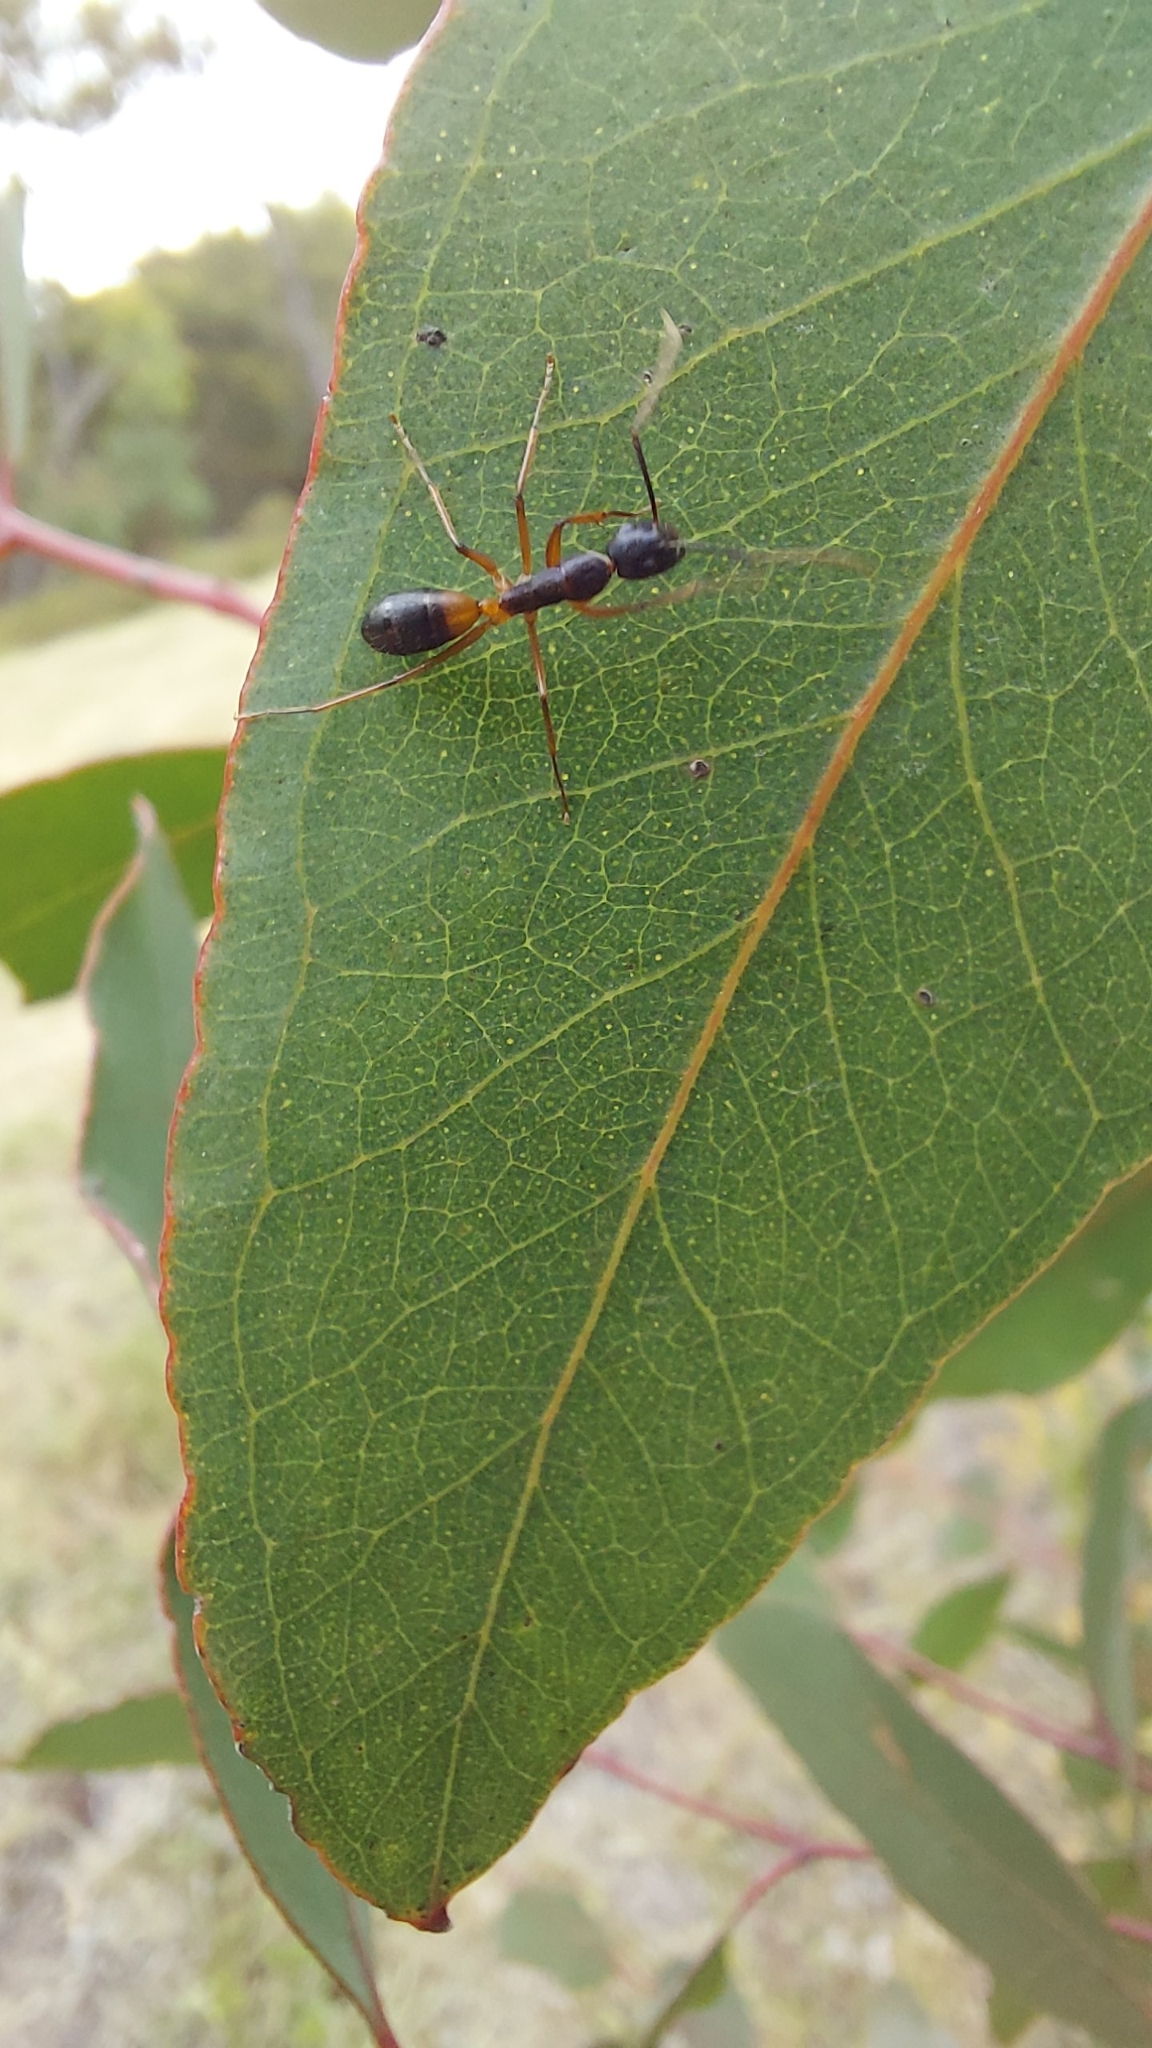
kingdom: Animalia
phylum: Arthropoda
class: Insecta
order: Hymenoptera
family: Formicidae
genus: Camponotus
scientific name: Camponotus consobrinus
